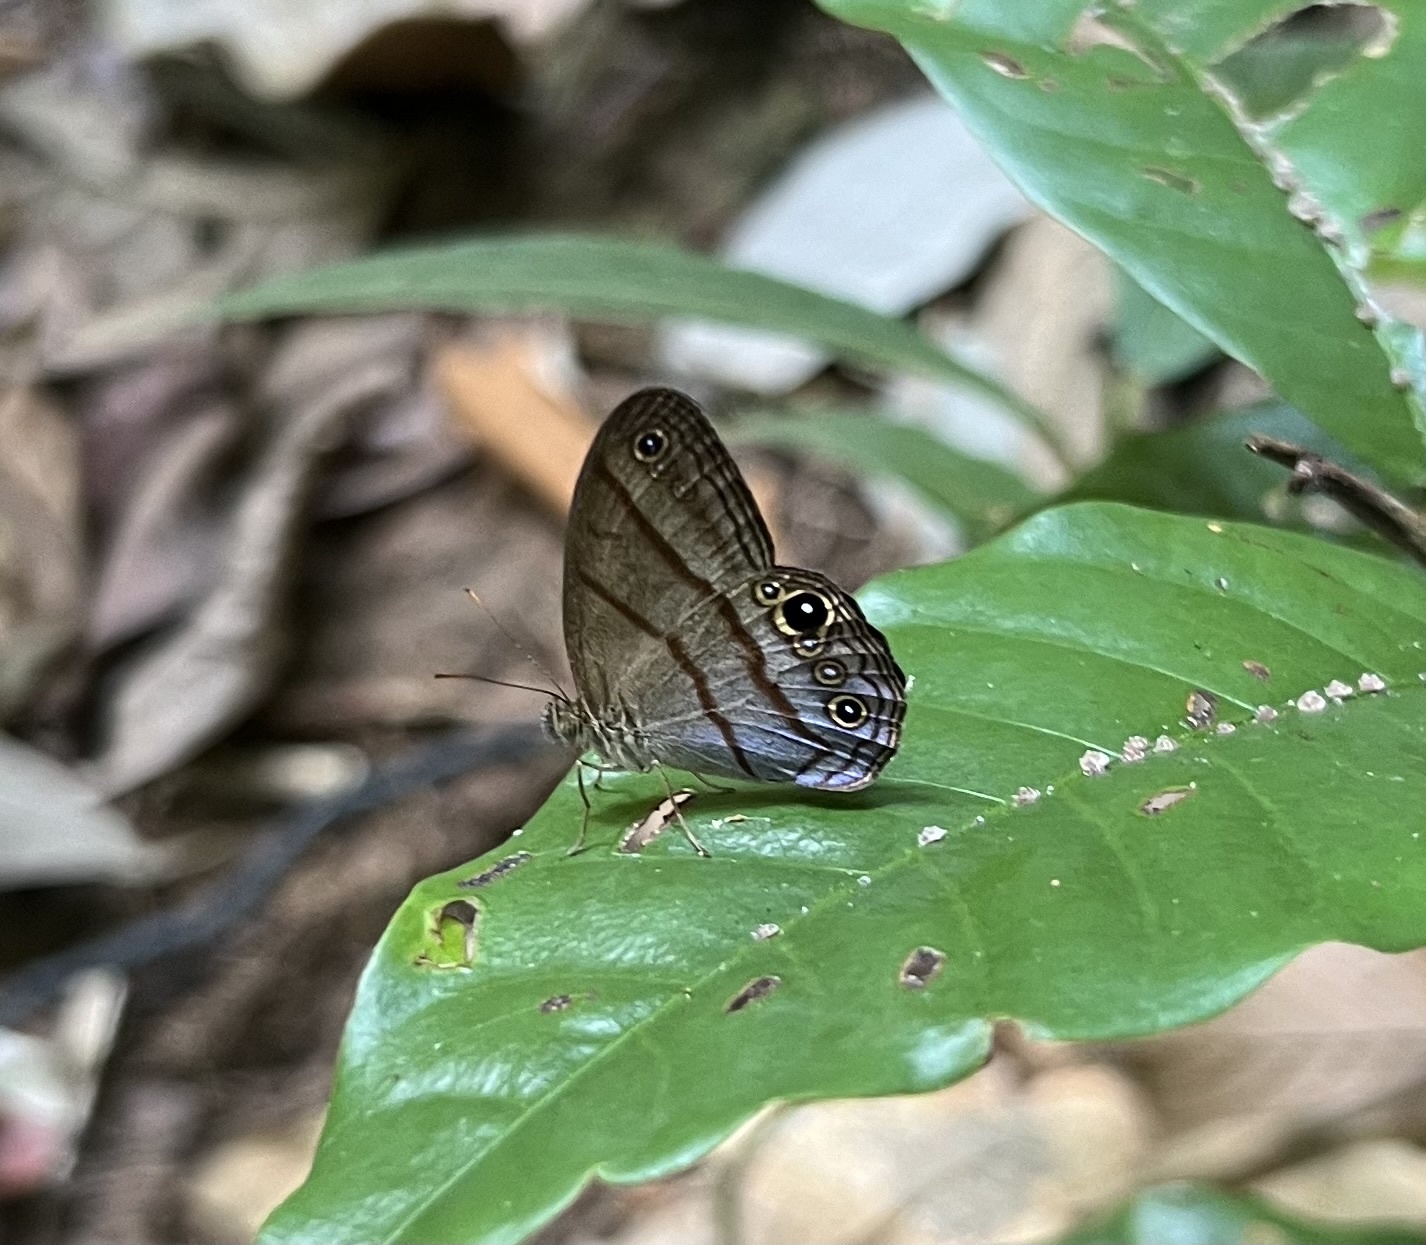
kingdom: Animalia
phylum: Arthropoda
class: Insecta
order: Lepidoptera
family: Nymphalidae
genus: Amiga
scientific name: Amiga arnaca
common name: Blue-topped satyr
